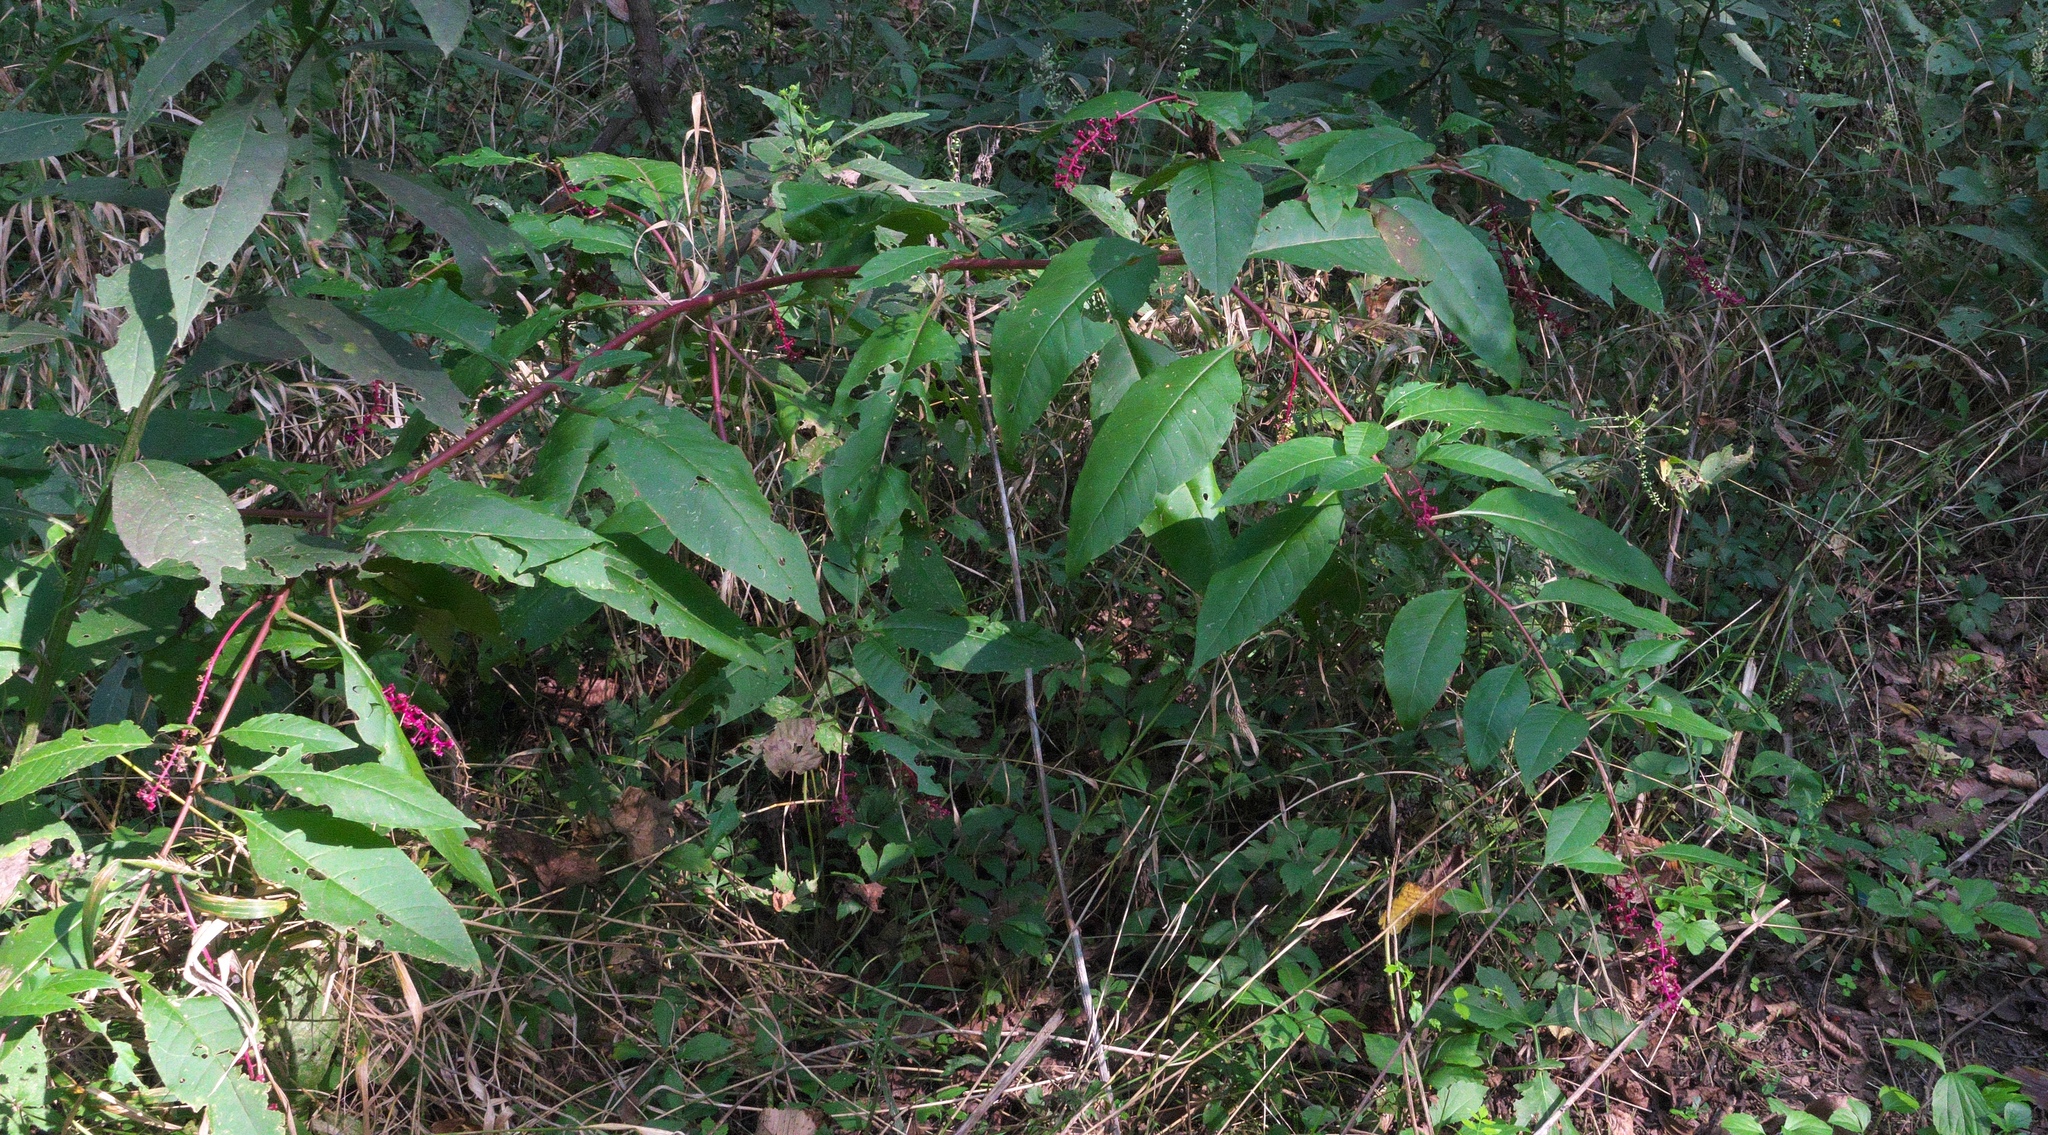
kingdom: Plantae
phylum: Tracheophyta
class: Magnoliopsida
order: Caryophyllales
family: Phytolaccaceae
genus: Phytolacca
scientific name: Phytolacca americana
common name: American pokeweed
